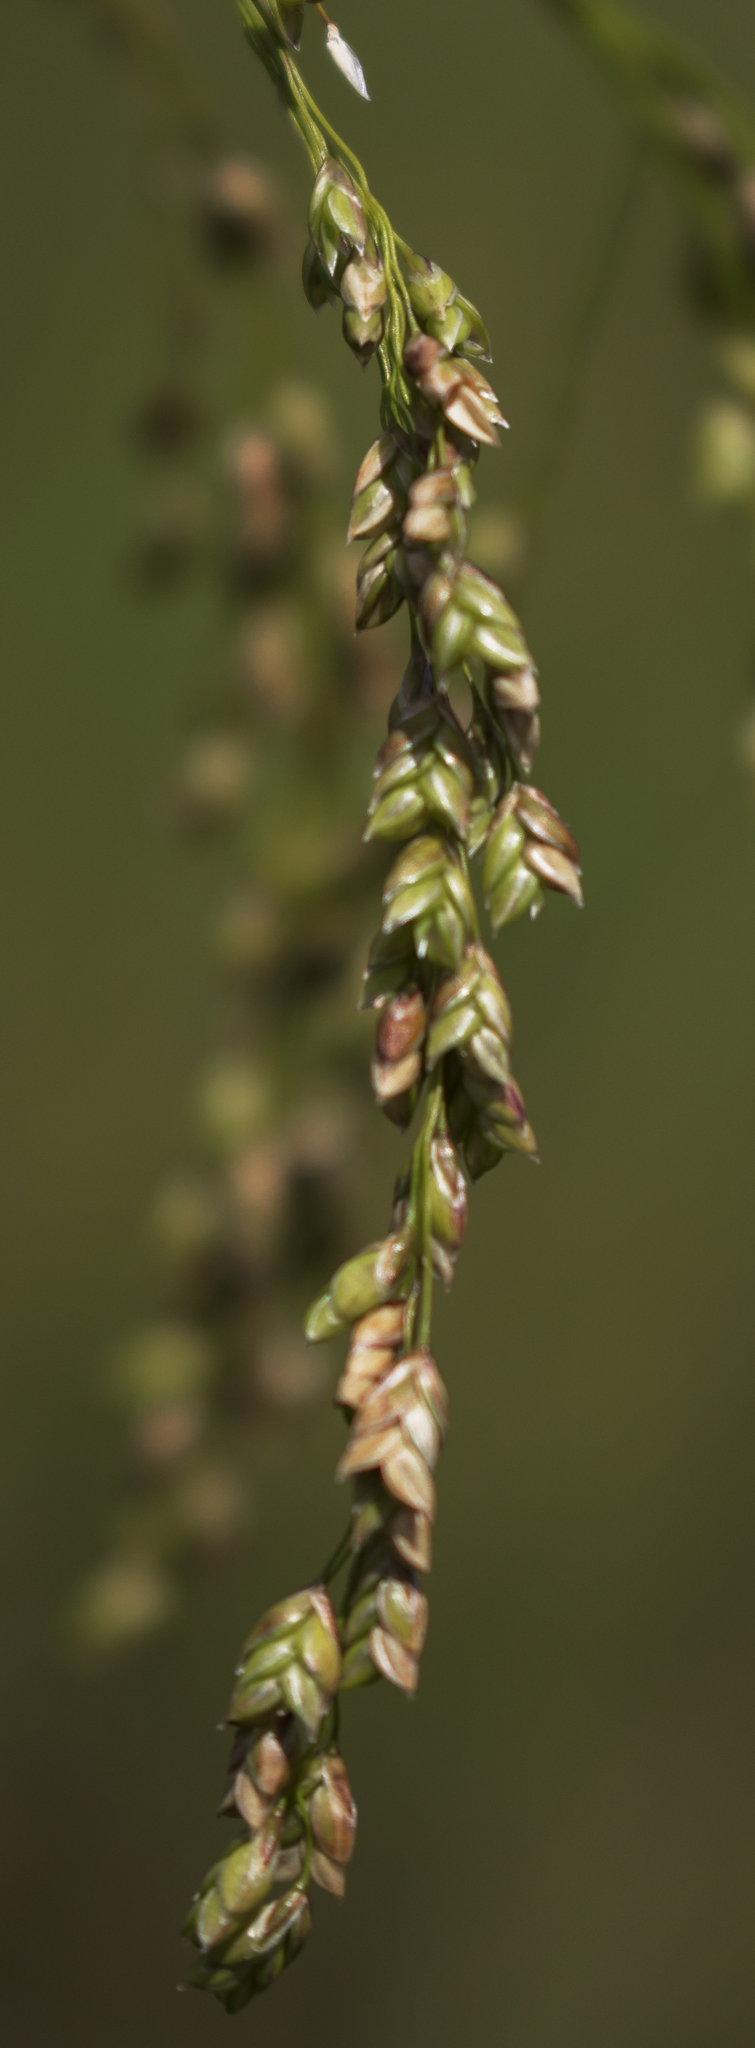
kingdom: Plantae
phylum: Tracheophyta
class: Liliopsida
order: Poales
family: Poaceae
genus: Glyceria
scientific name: Glyceria canadensis
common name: Canada mannagrass
